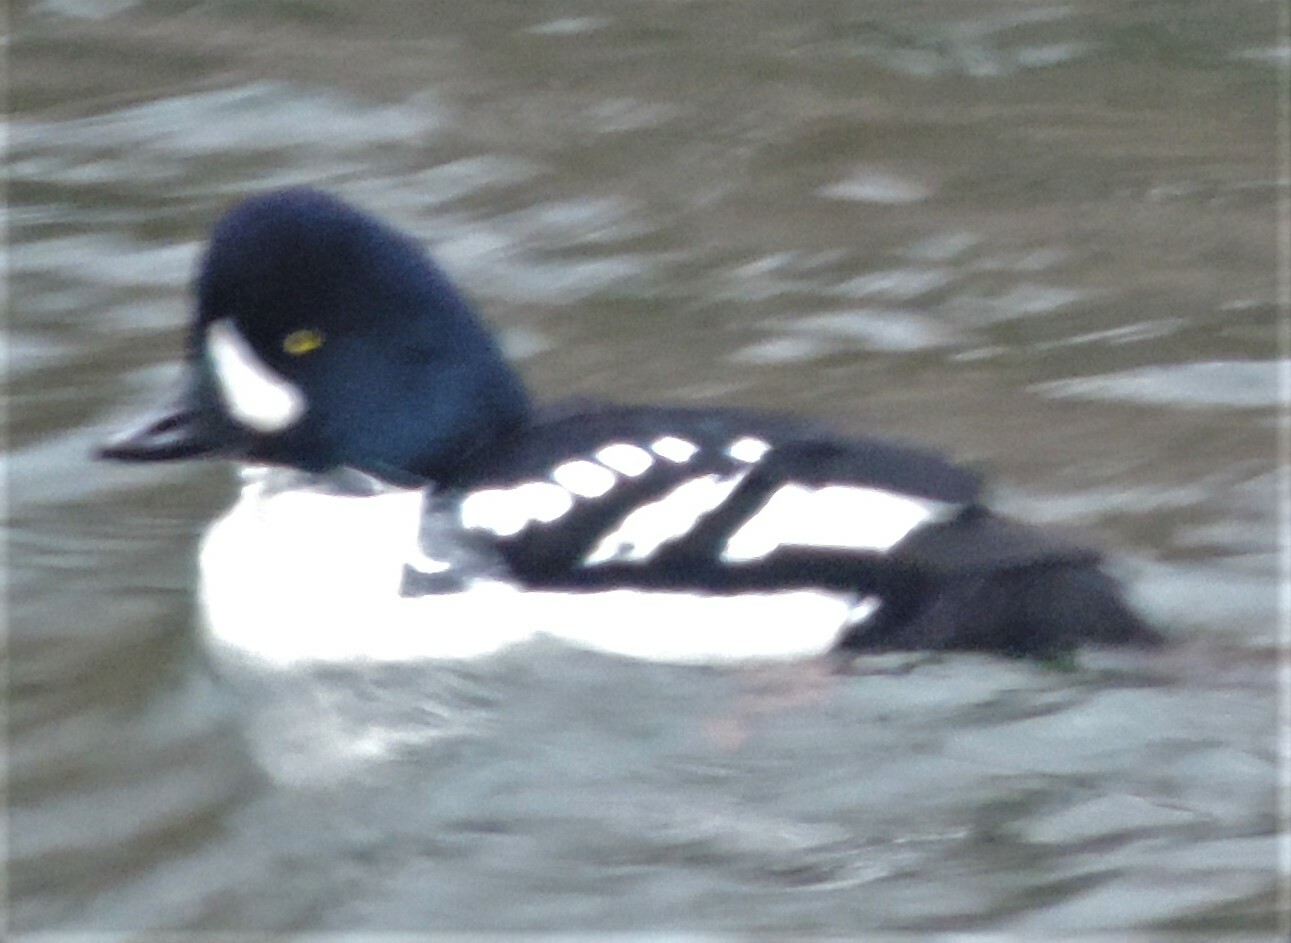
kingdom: Animalia
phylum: Chordata
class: Aves
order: Anseriformes
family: Anatidae
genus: Bucephala
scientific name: Bucephala islandica
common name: Barrow's goldeneye
